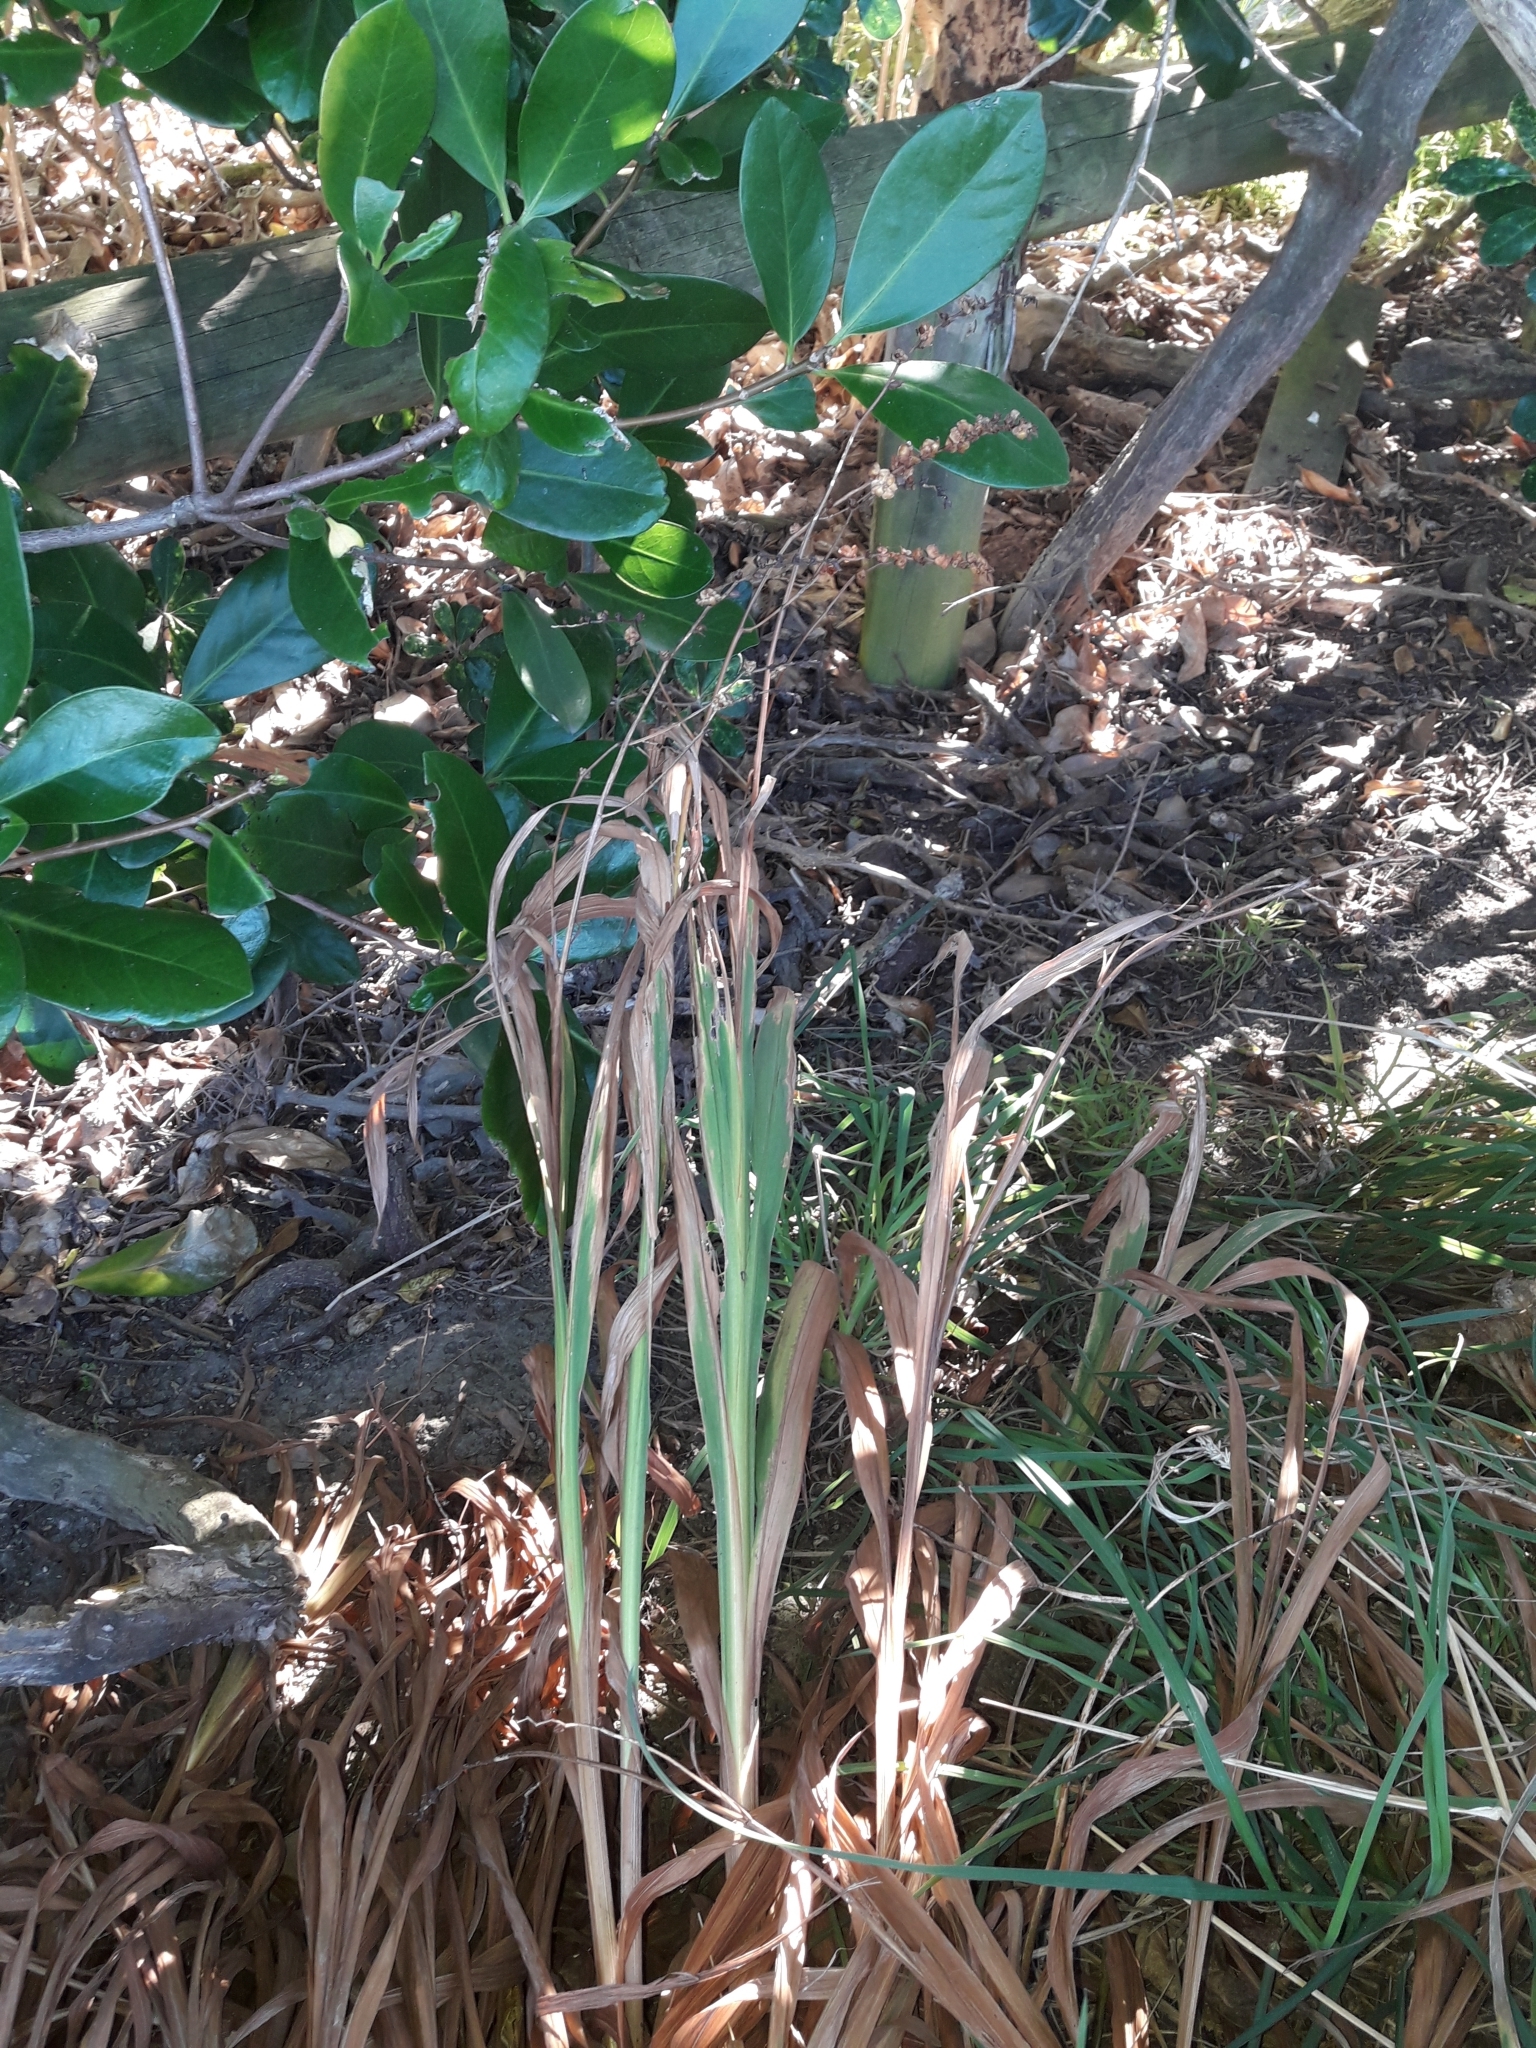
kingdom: Plantae
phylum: Tracheophyta
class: Liliopsida
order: Asparagales
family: Iridaceae
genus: Crocosmia
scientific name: Crocosmia crocosmiiflora
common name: Montbretia
